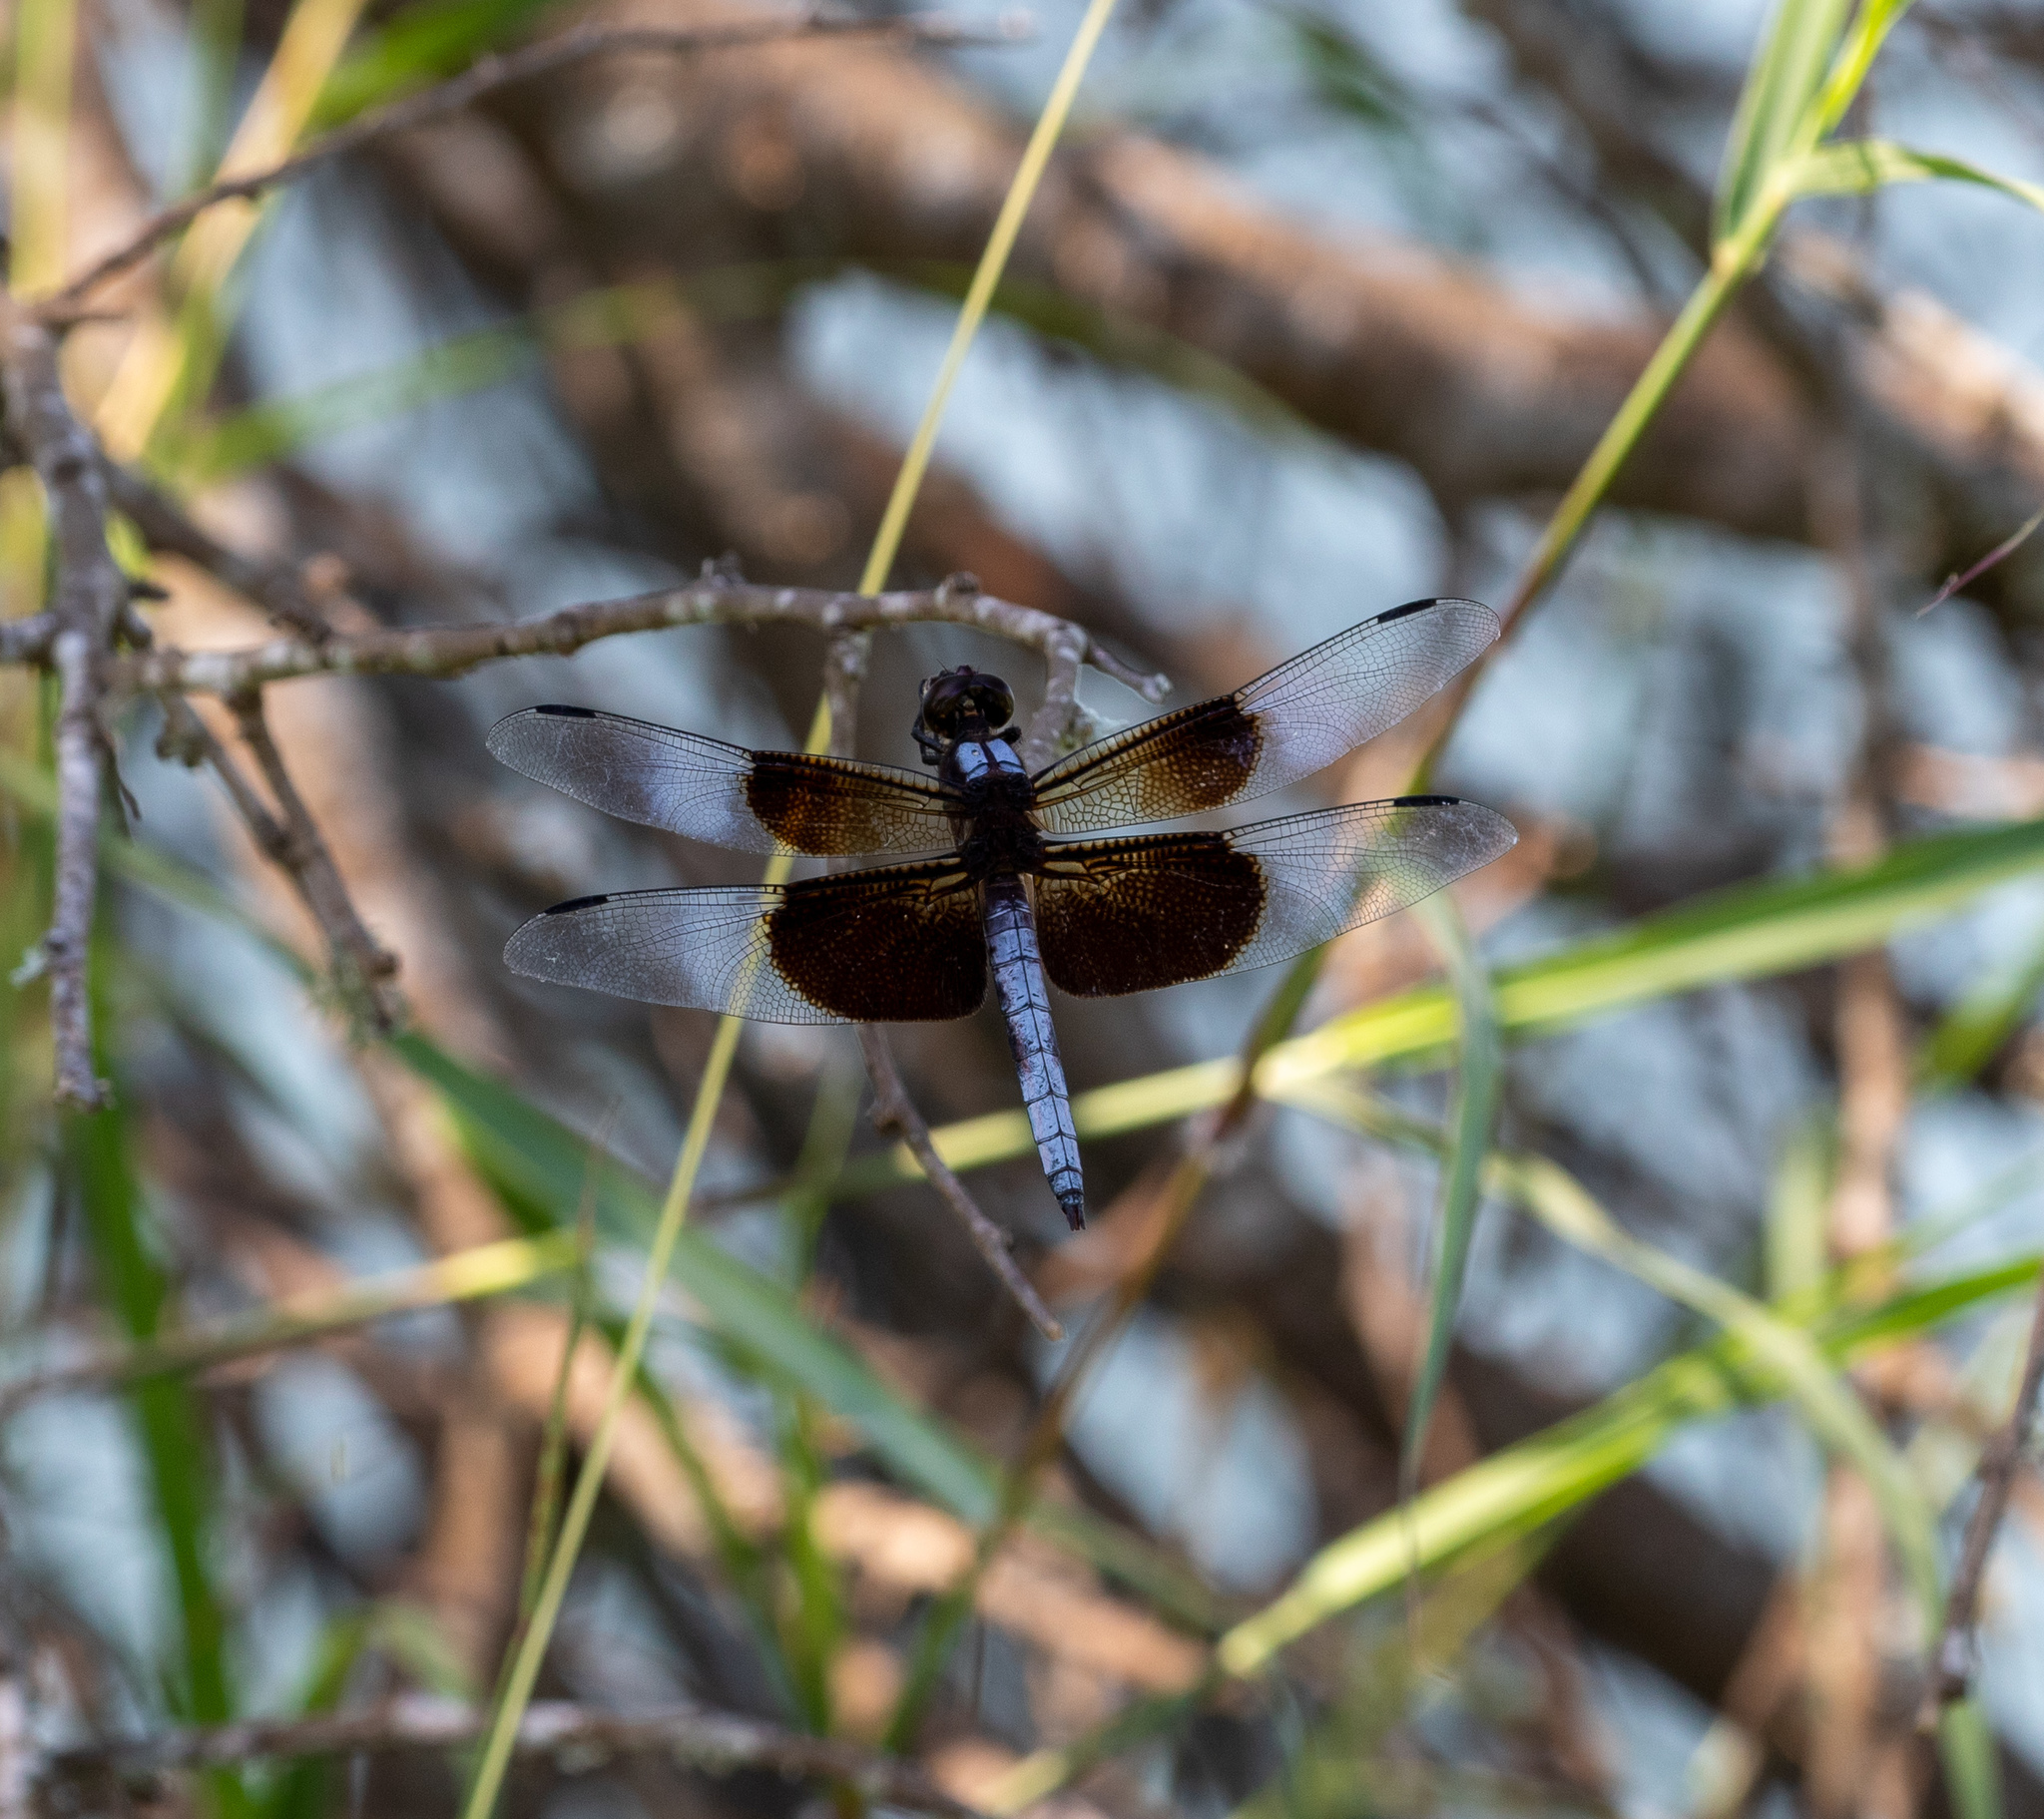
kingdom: Animalia
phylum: Arthropoda
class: Insecta
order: Odonata
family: Libellulidae
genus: Libellula
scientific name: Libellula luctuosa
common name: Widow skimmer
